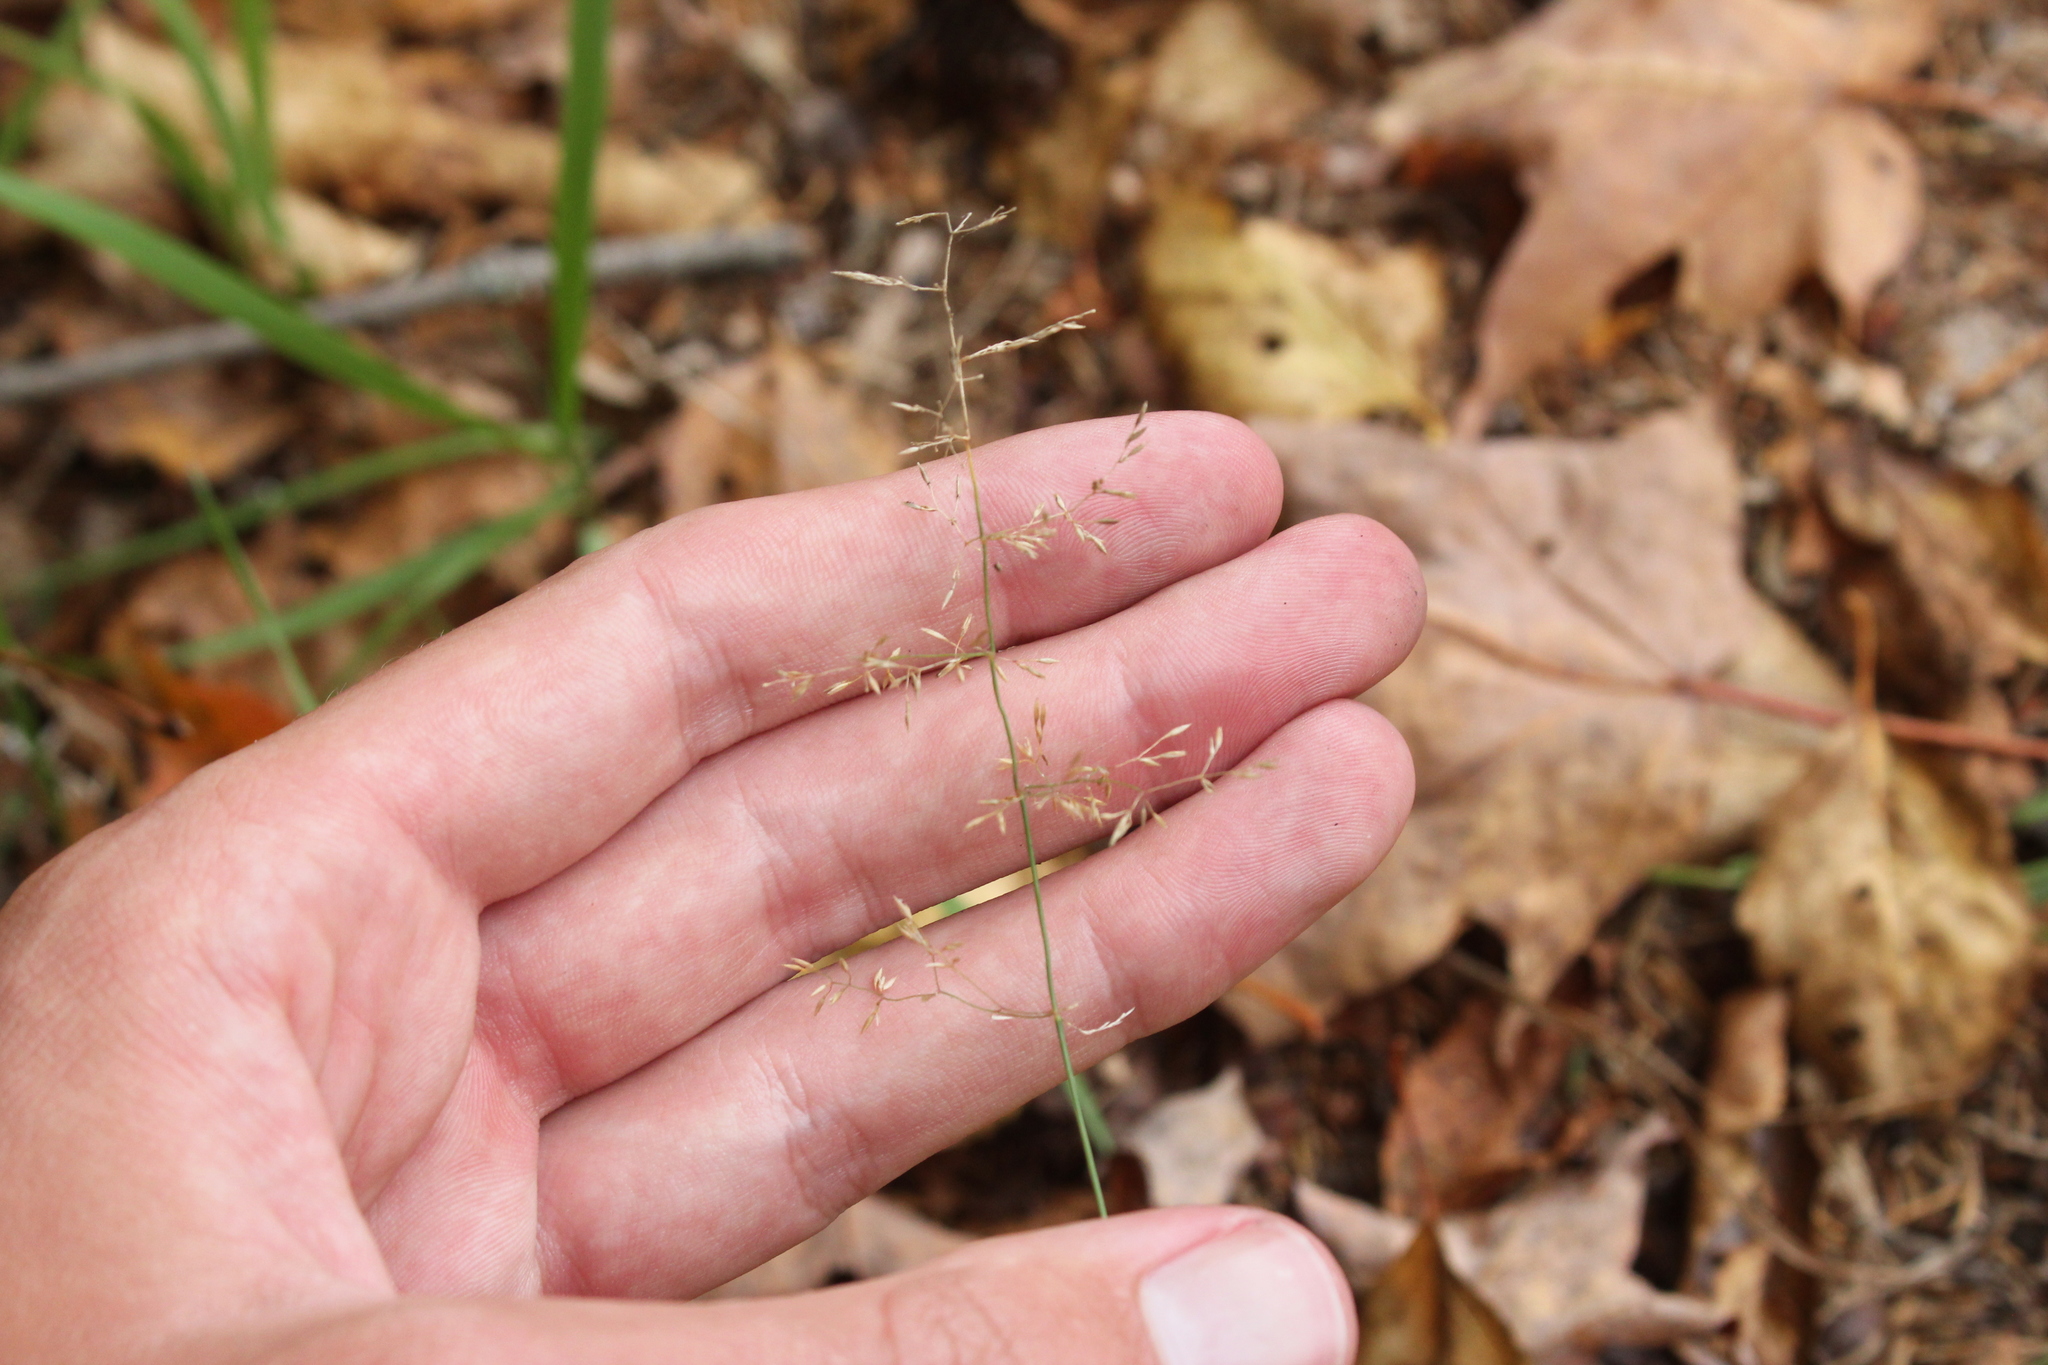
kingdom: Plantae
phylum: Tracheophyta
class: Liliopsida
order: Poales
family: Poaceae
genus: Agrostis
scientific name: Agrostis capillaris
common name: Colonial bentgrass
